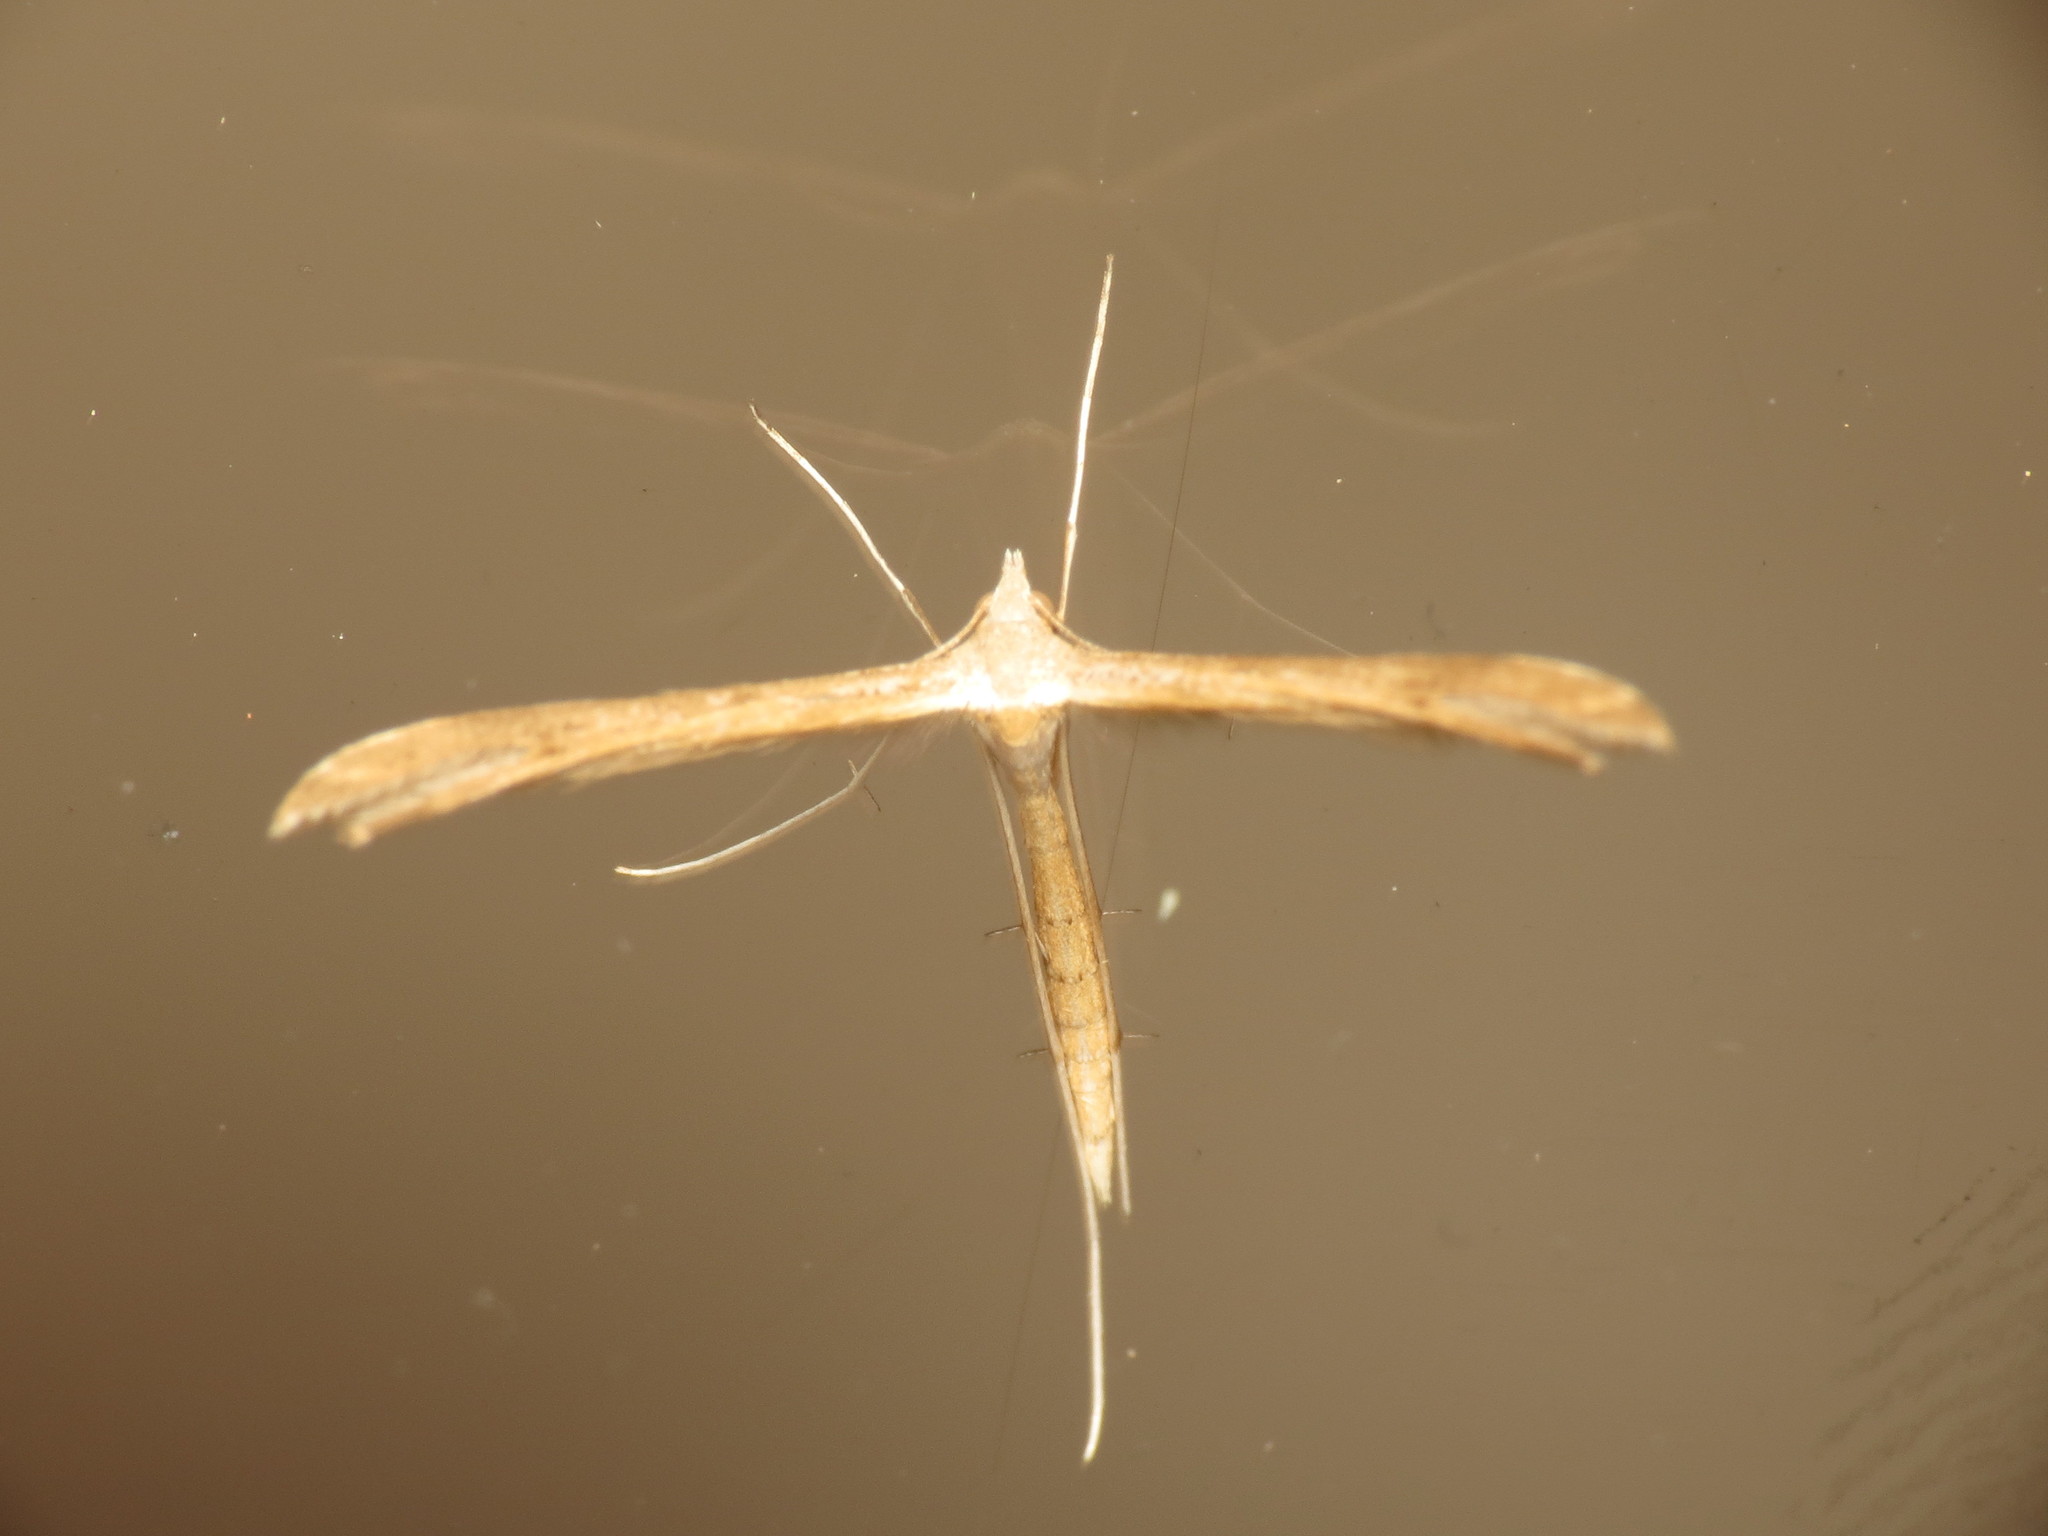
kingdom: Animalia
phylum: Arthropoda
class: Insecta
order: Lepidoptera
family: Pterophoridae
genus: Stenoptilia
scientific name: Stenoptilia zophodactylus
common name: Dowdy plume
